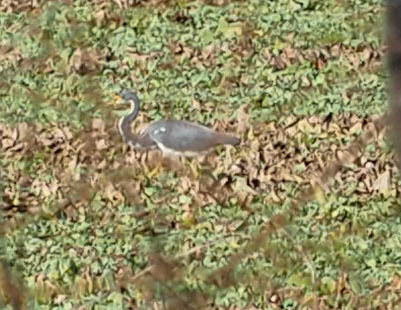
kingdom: Animalia
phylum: Chordata
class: Aves
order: Pelecaniformes
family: Ardeidae
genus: Egretta
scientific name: Egretta tricolor
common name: Tricolored heron
